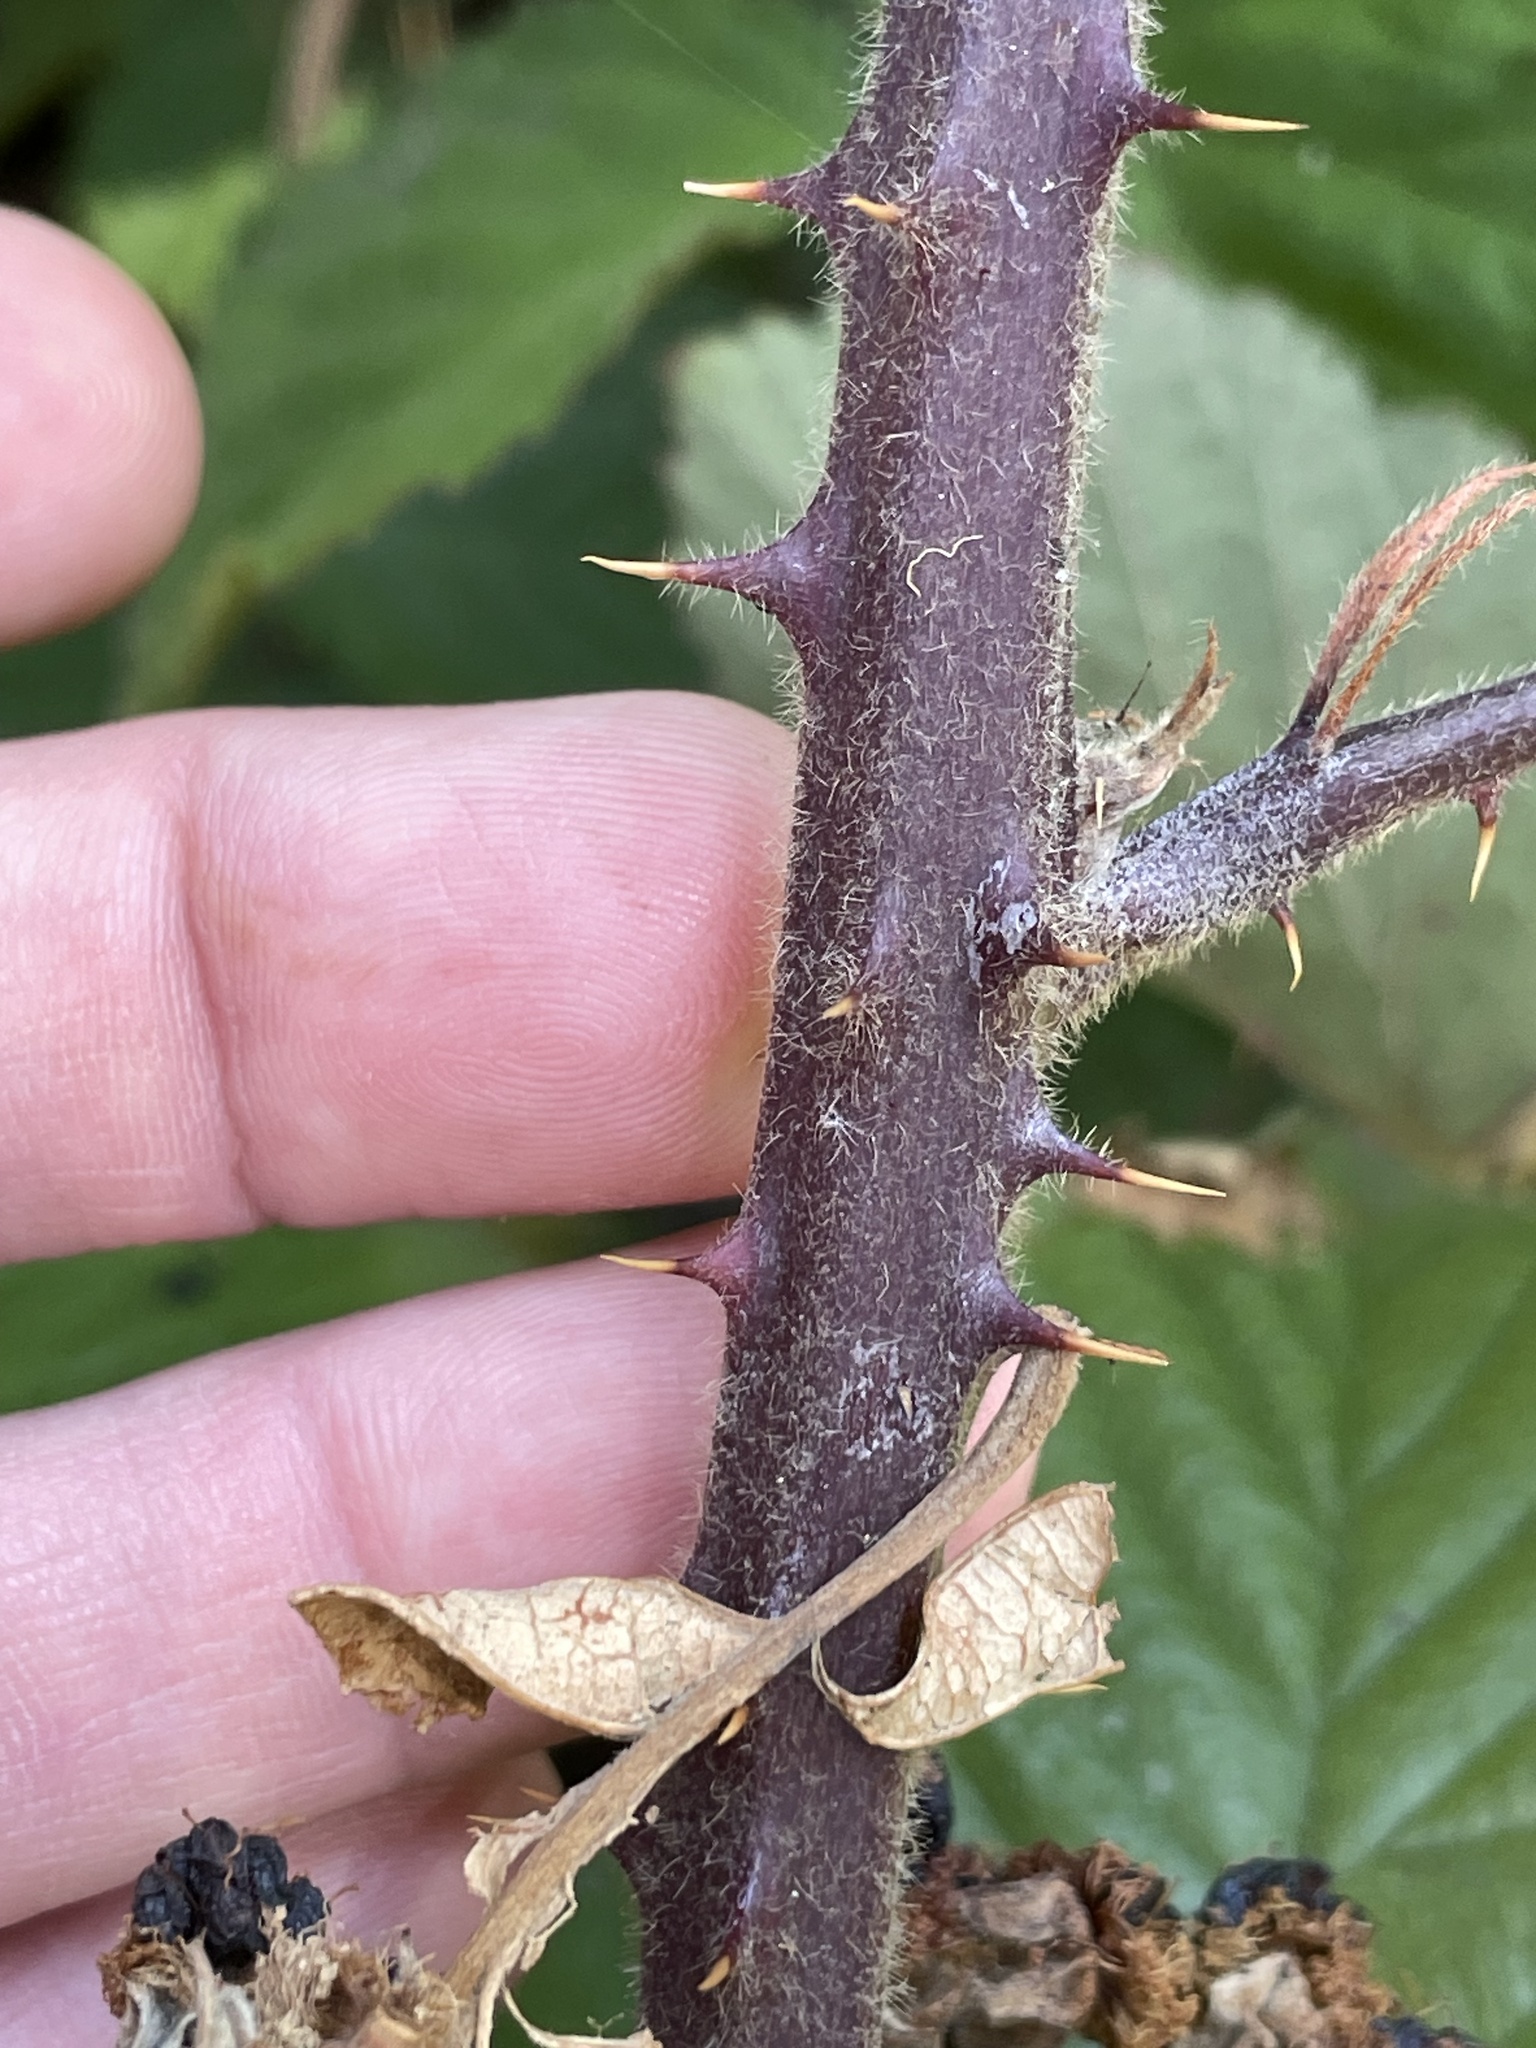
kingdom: Plantae
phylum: Tracheophyta
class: Magnoliopsida
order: Rosales
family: Rosaceae
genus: Rubus
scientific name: Rubus vestitus
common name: European blackberry
